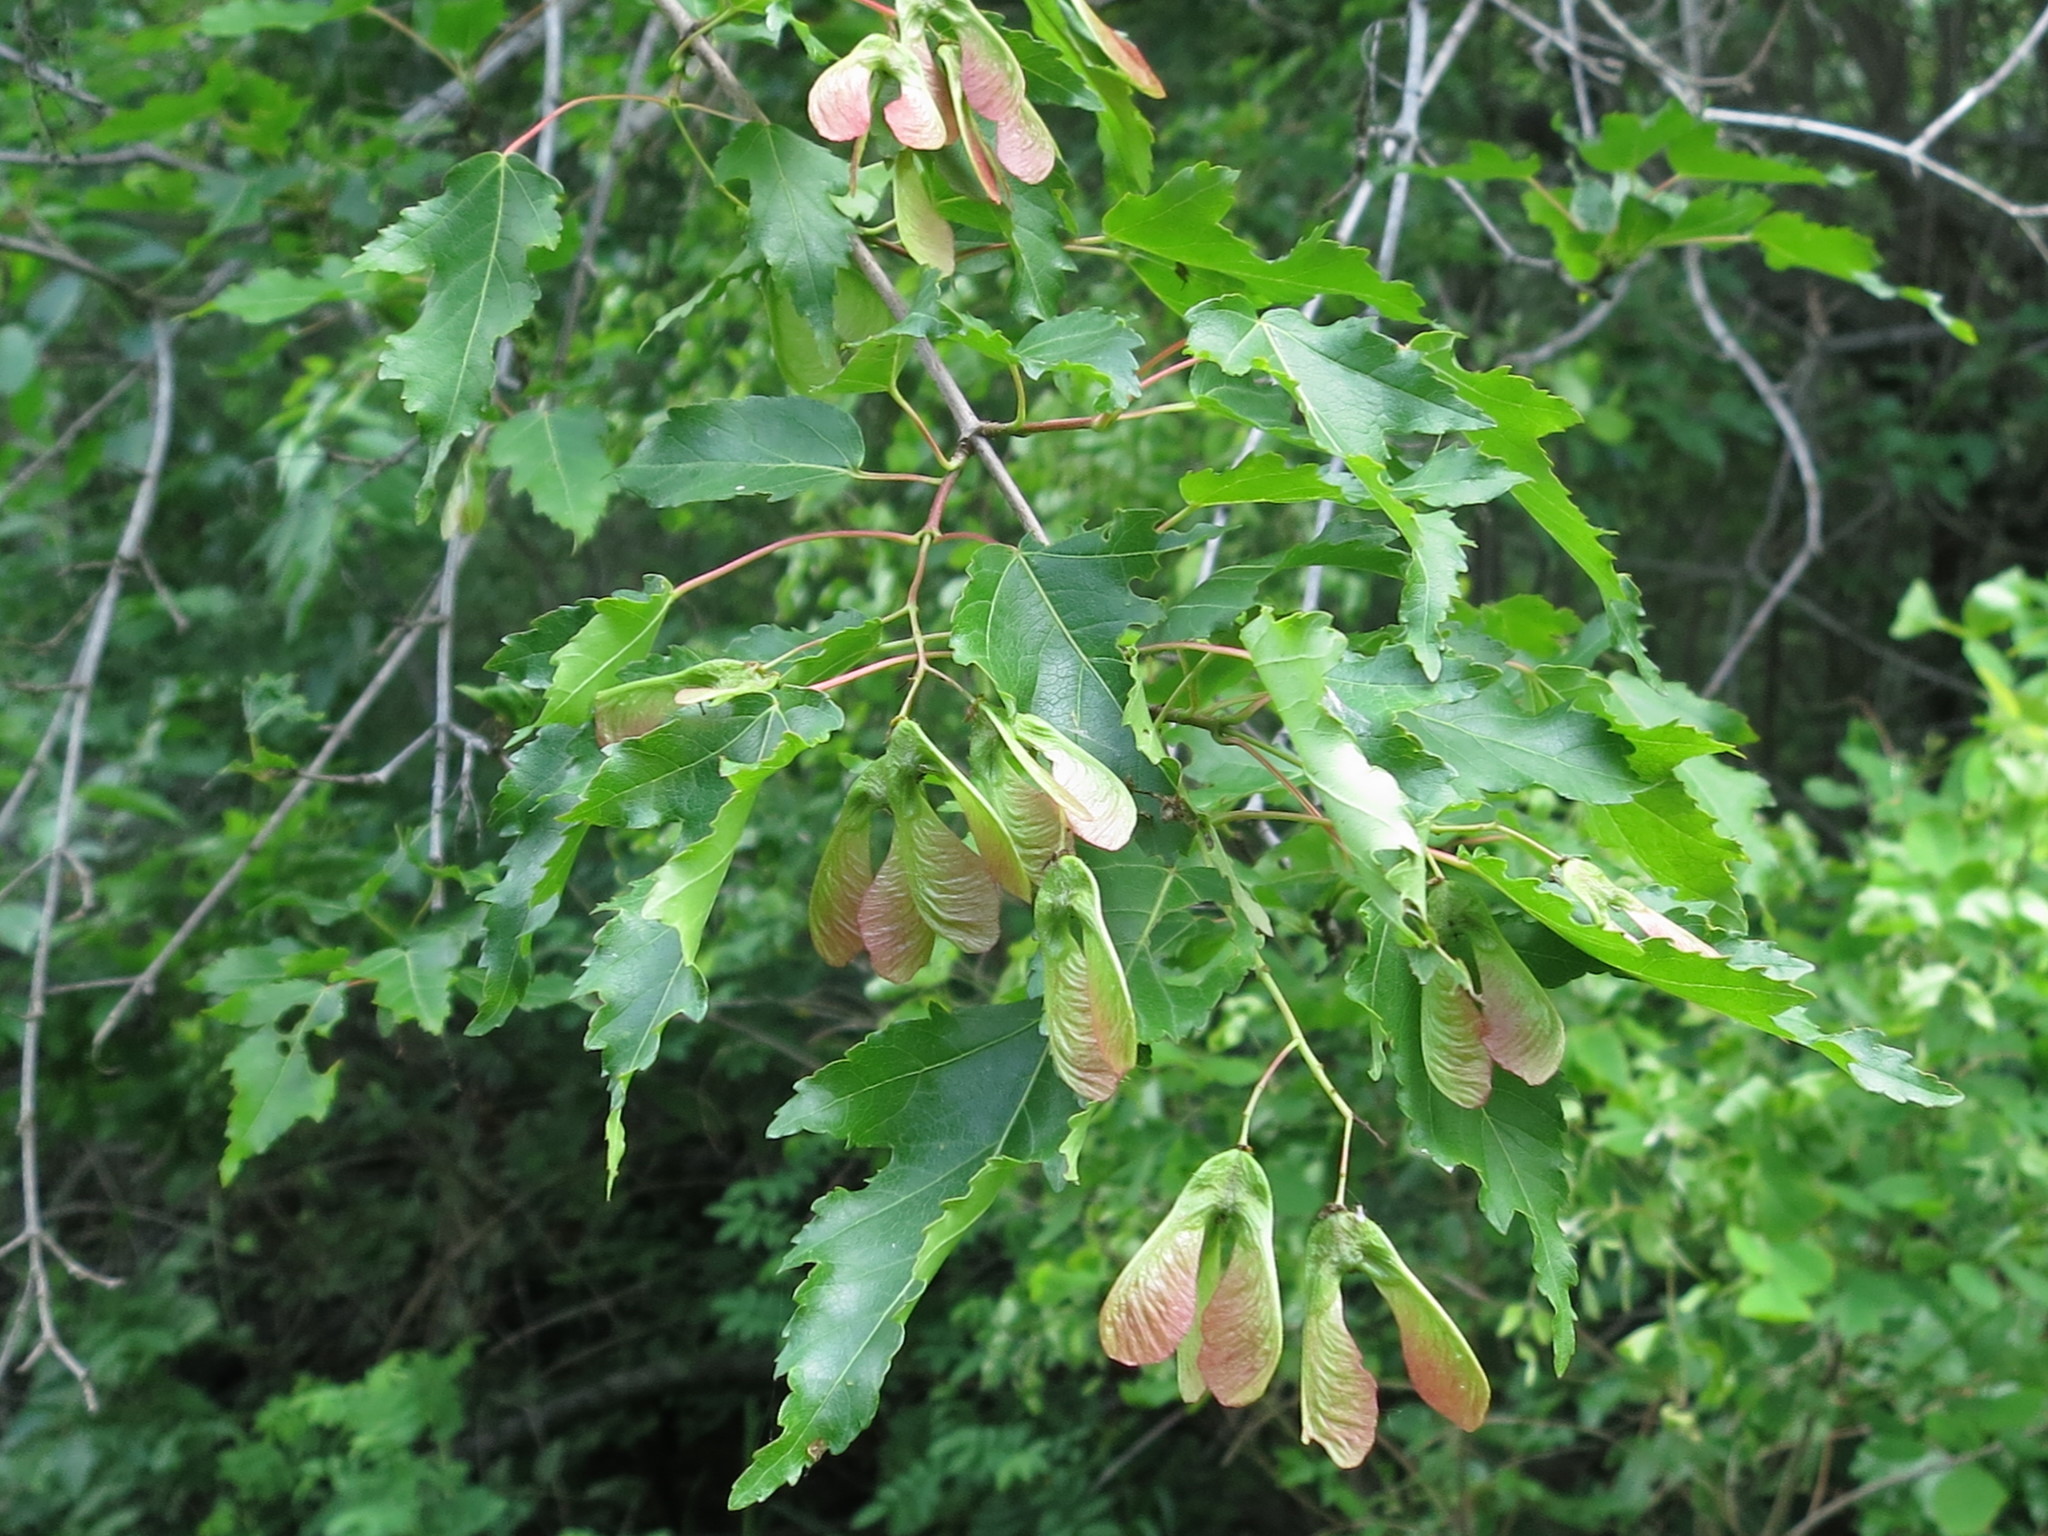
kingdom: Plantae
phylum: Tracheophyta
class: Magnoliopsida
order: Sapindales
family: Sapindaceae
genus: Acer
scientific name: Acer tataricum
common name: Tartar maple
